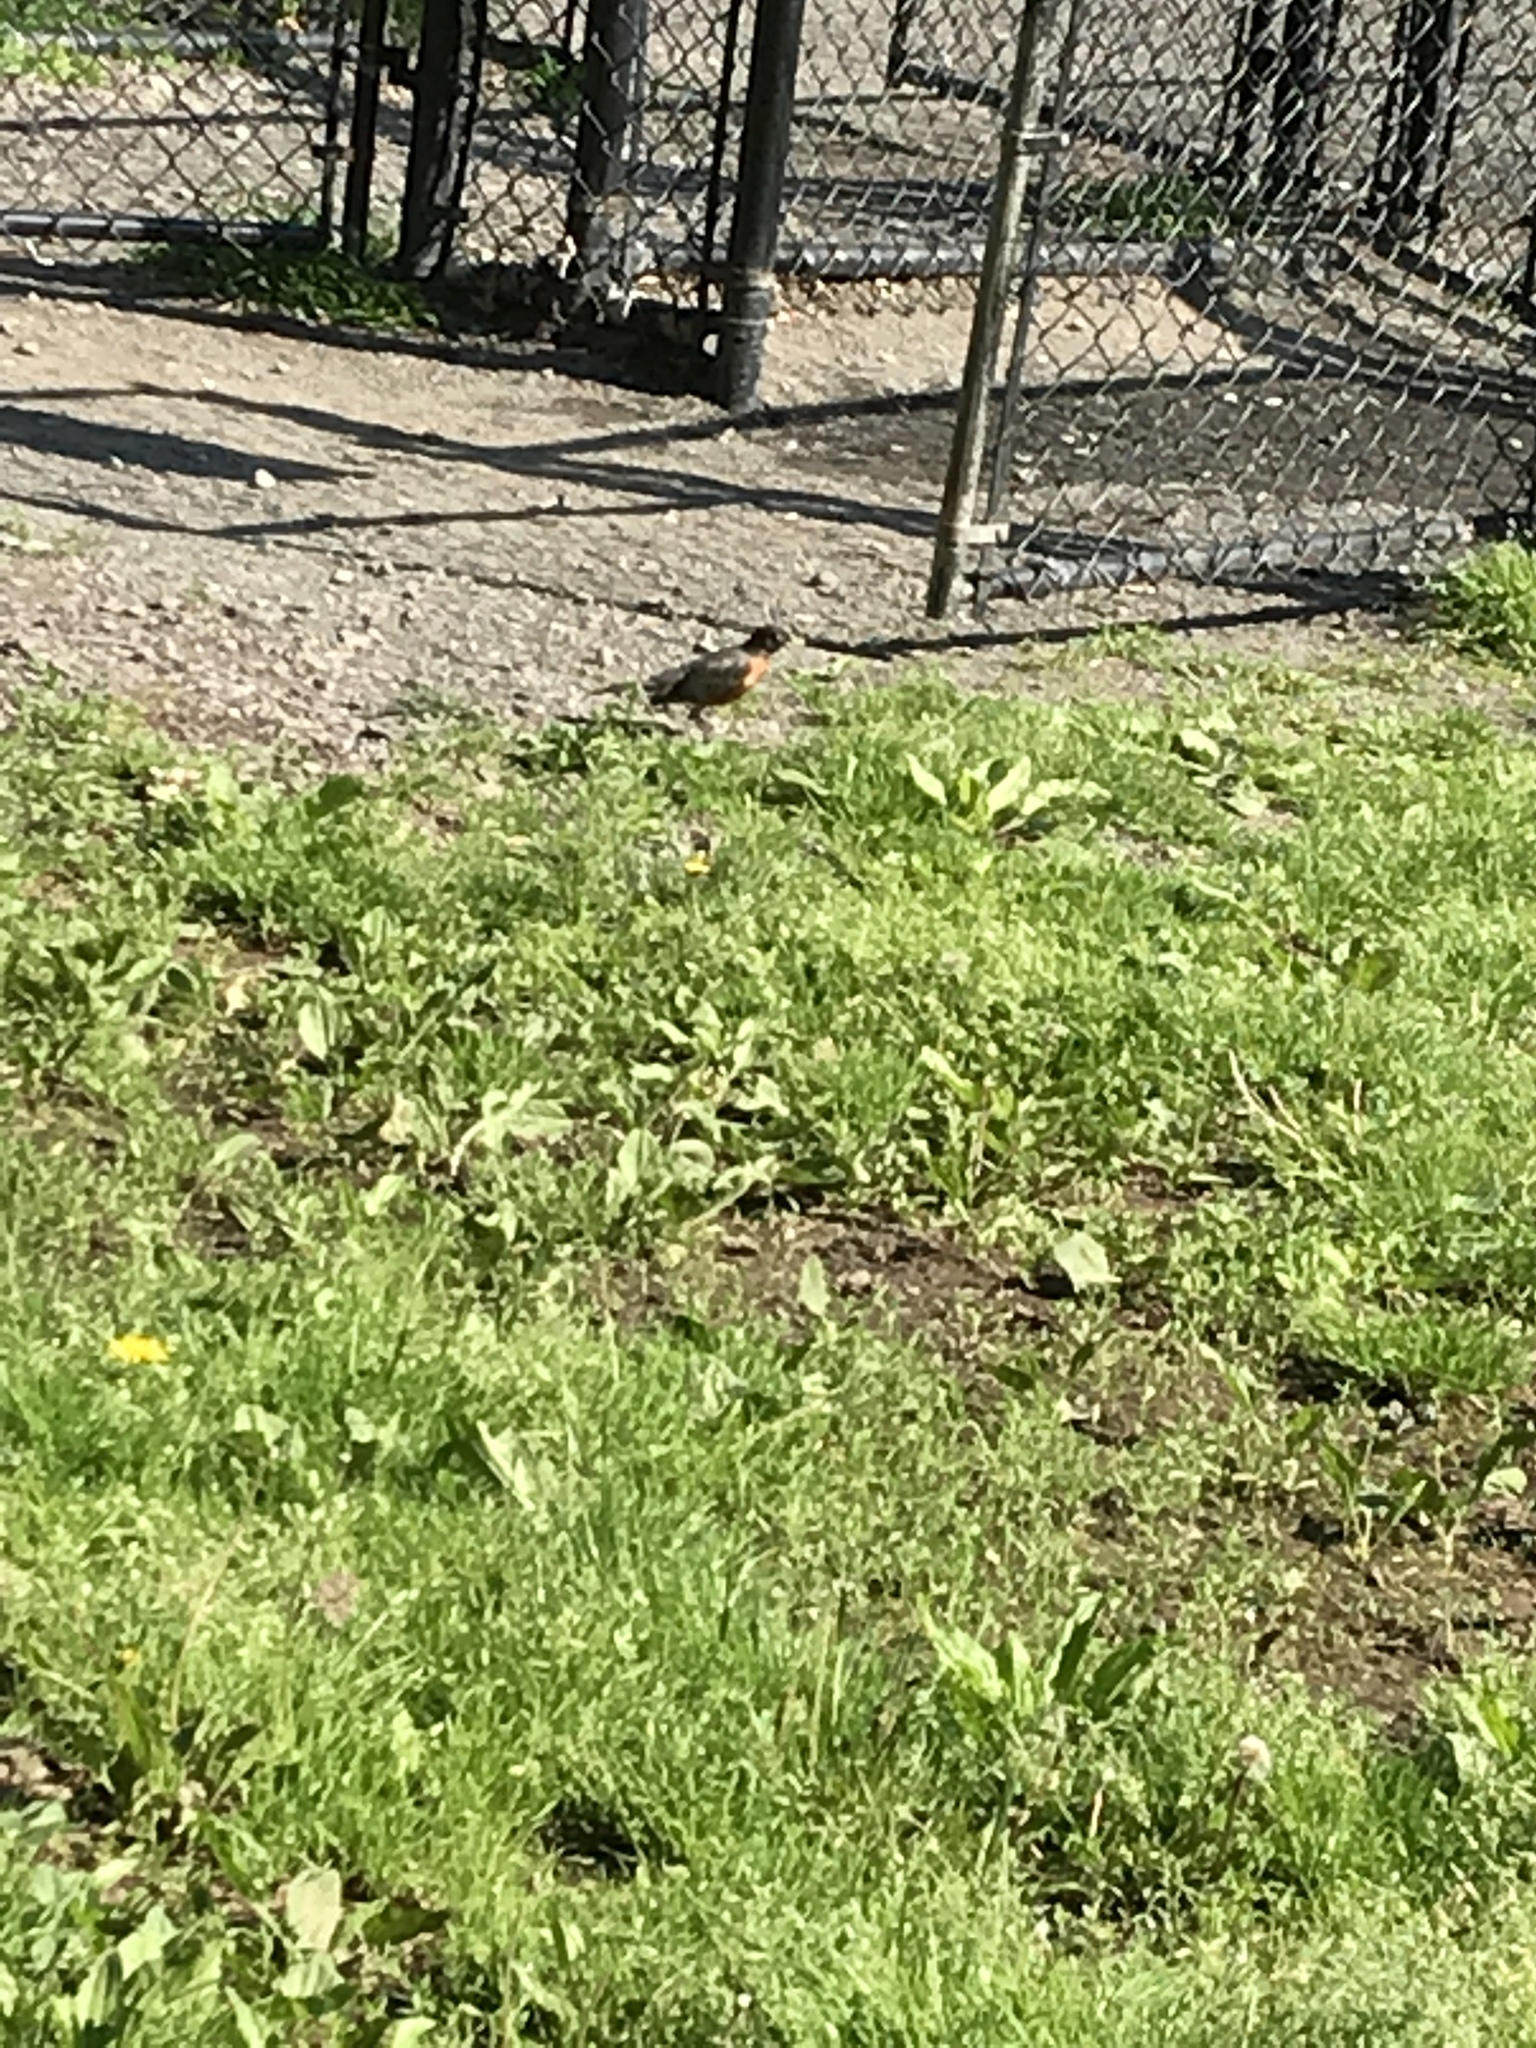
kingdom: Animalia
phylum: Chordata
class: Aves
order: Passeriformes
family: Turdidae
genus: Turdus
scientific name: Turdus migratorius
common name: American robin
